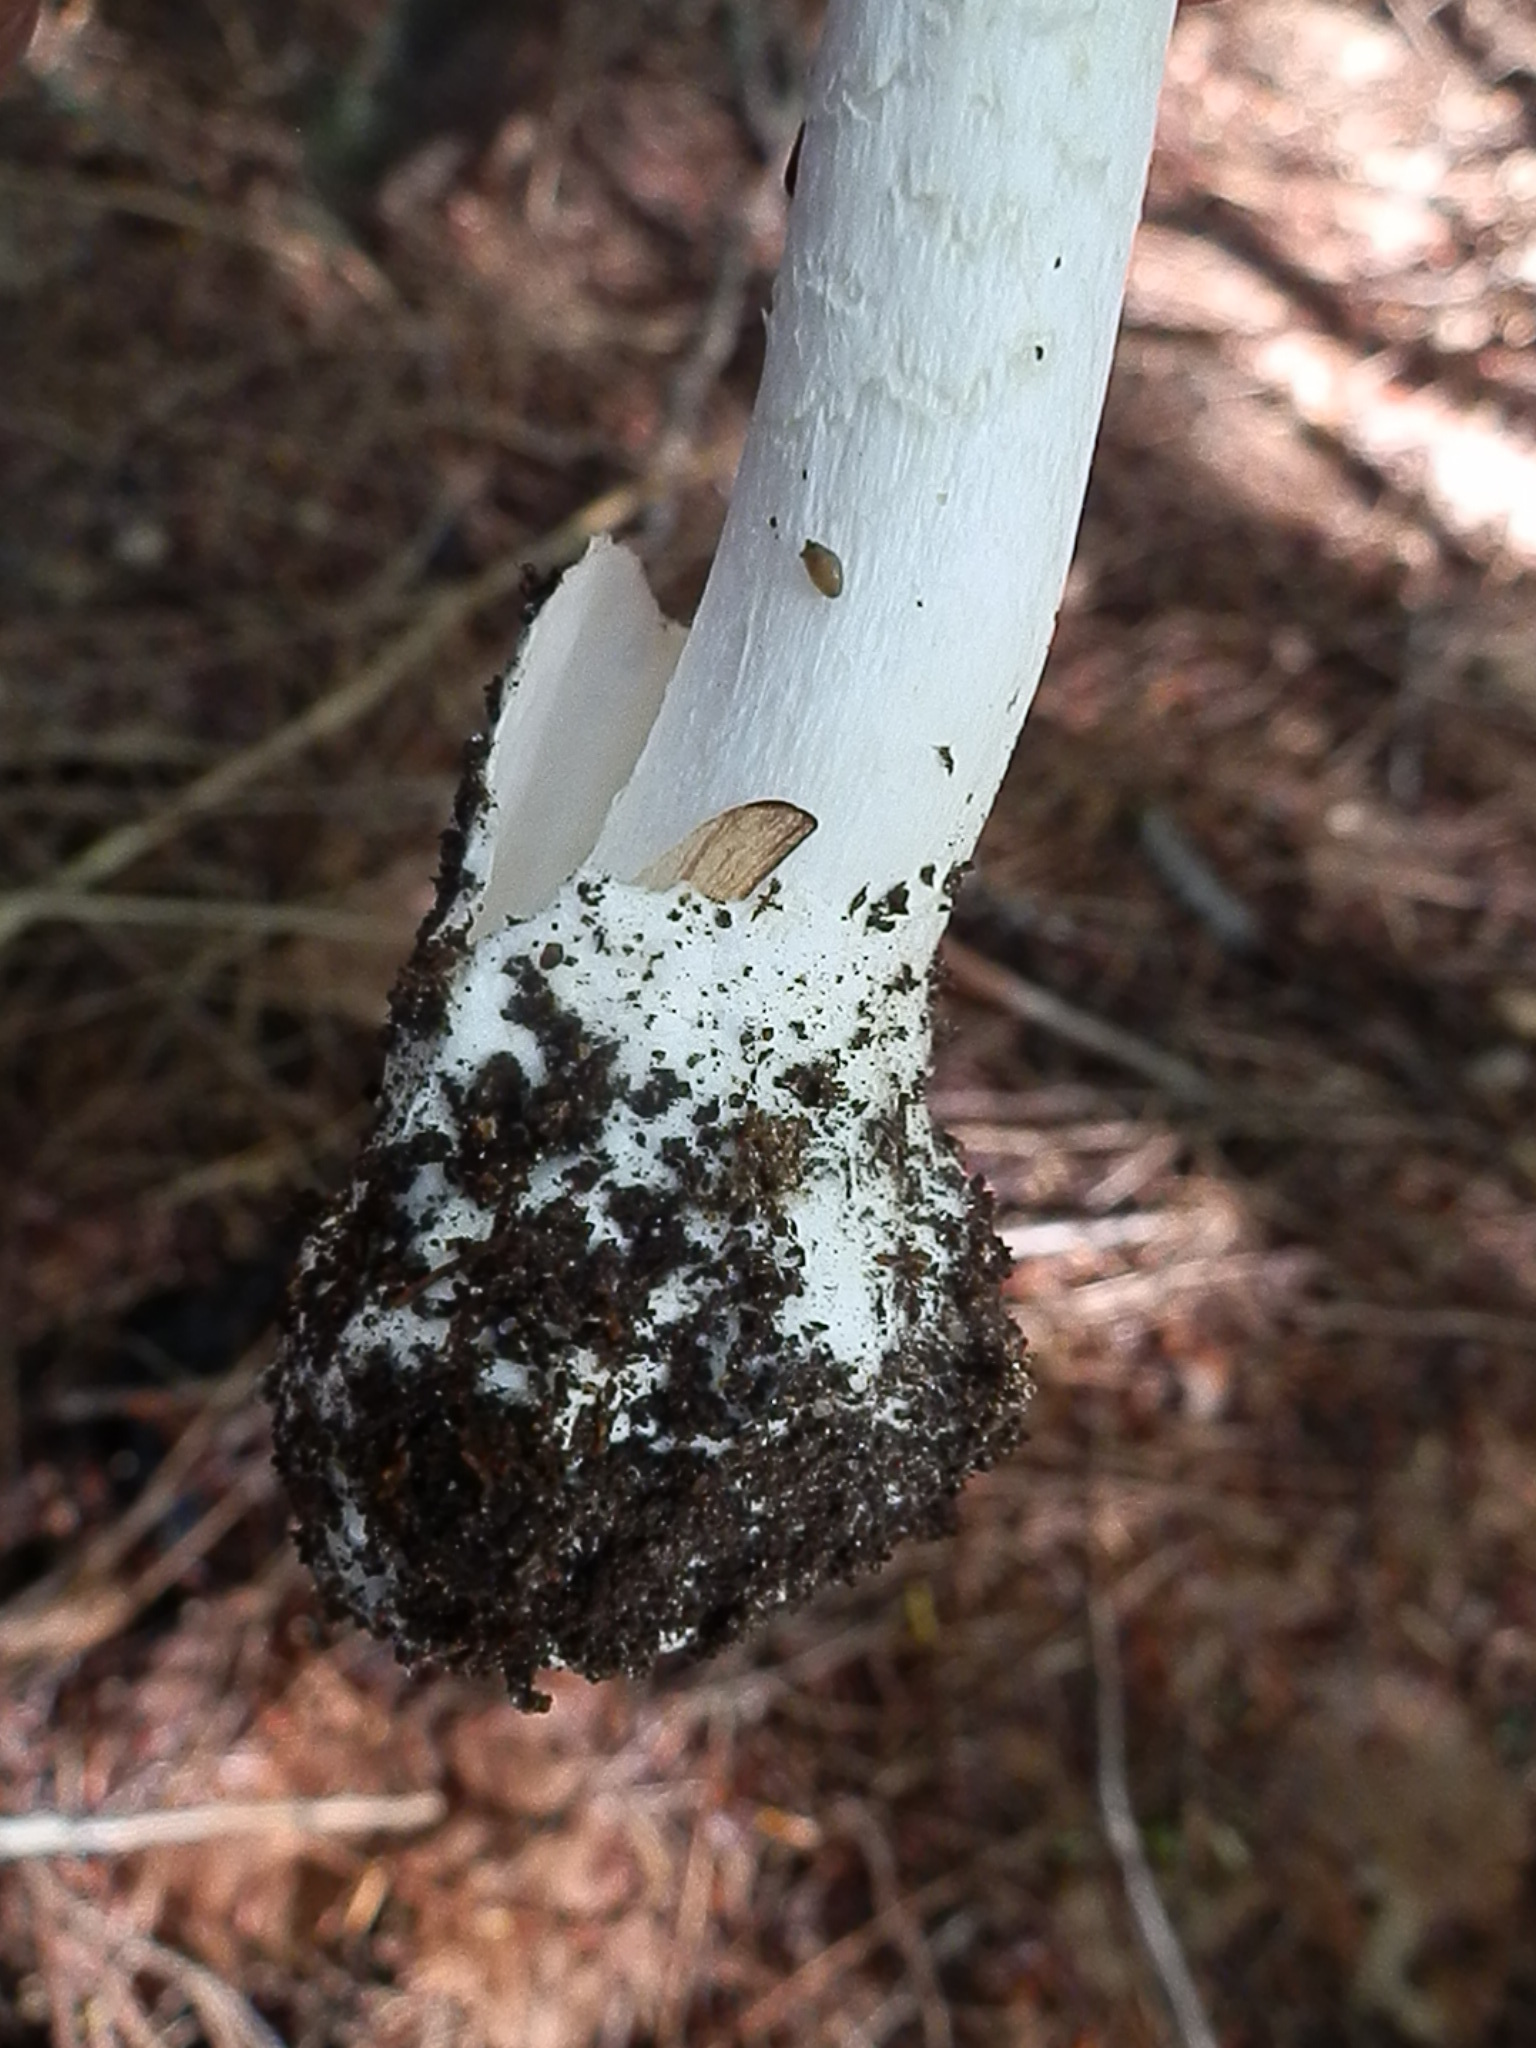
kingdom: Fungi
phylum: Basidiomycota
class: Agaricomycetes
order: Agaricales
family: Amanitaceae
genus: Amanita
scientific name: Amanita bisporigera
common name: Eastern north american destroying angel
